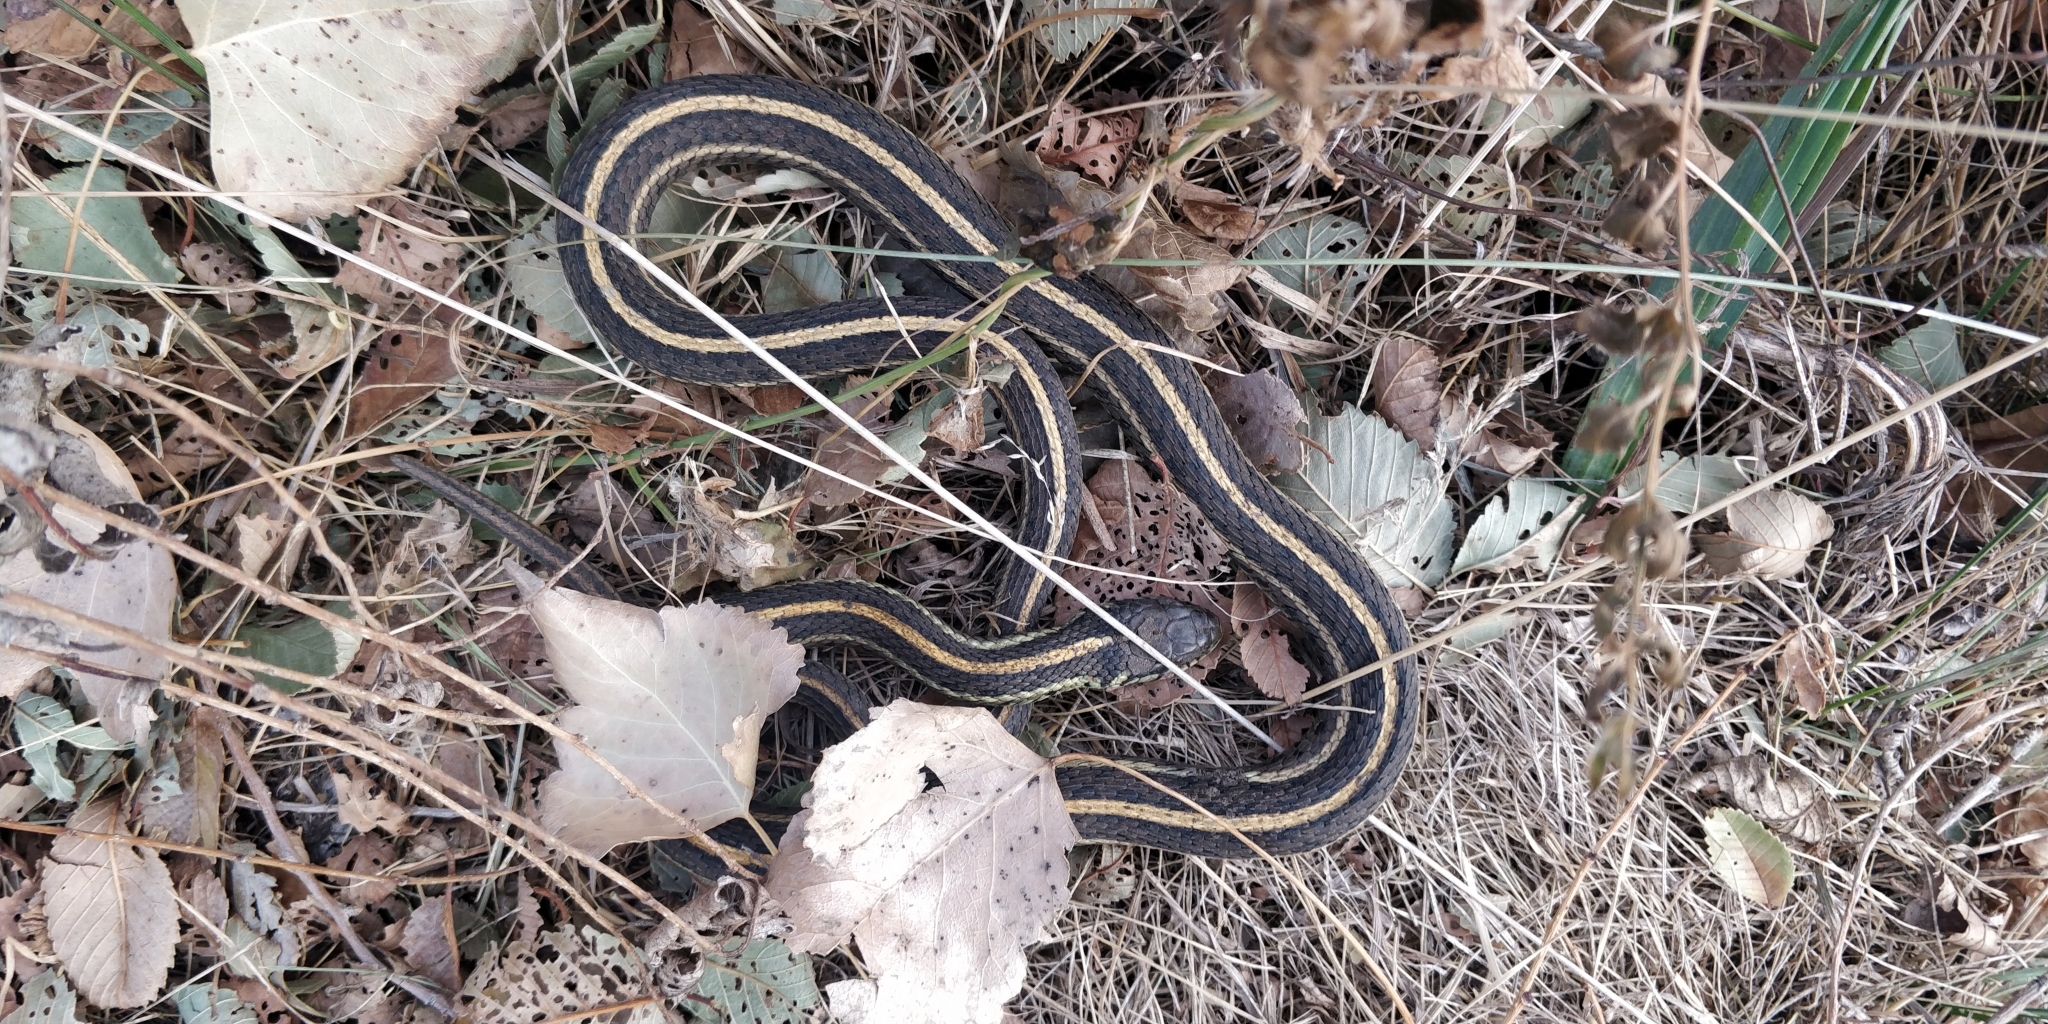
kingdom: Animalia
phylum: Chordata
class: Squamata
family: Colubridae
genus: Thamnophis
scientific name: Thamnophis radix
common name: Plains garter snake
